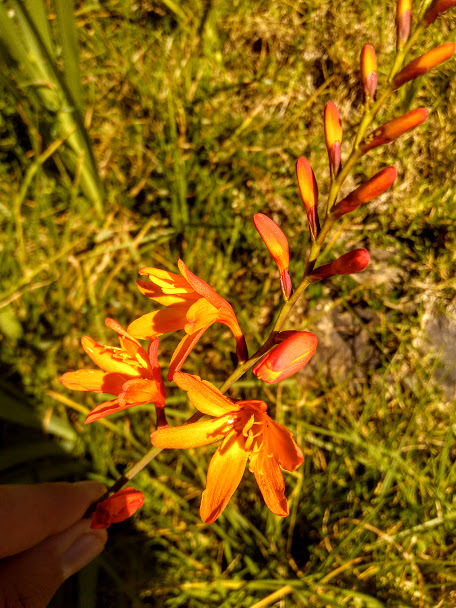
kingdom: Plantae
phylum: Tracheophyta
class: Liliopsida
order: Asparagales
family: Iridaceae
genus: Crocosmia
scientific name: Crocosmia crocosmiiflora
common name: Montbretia
